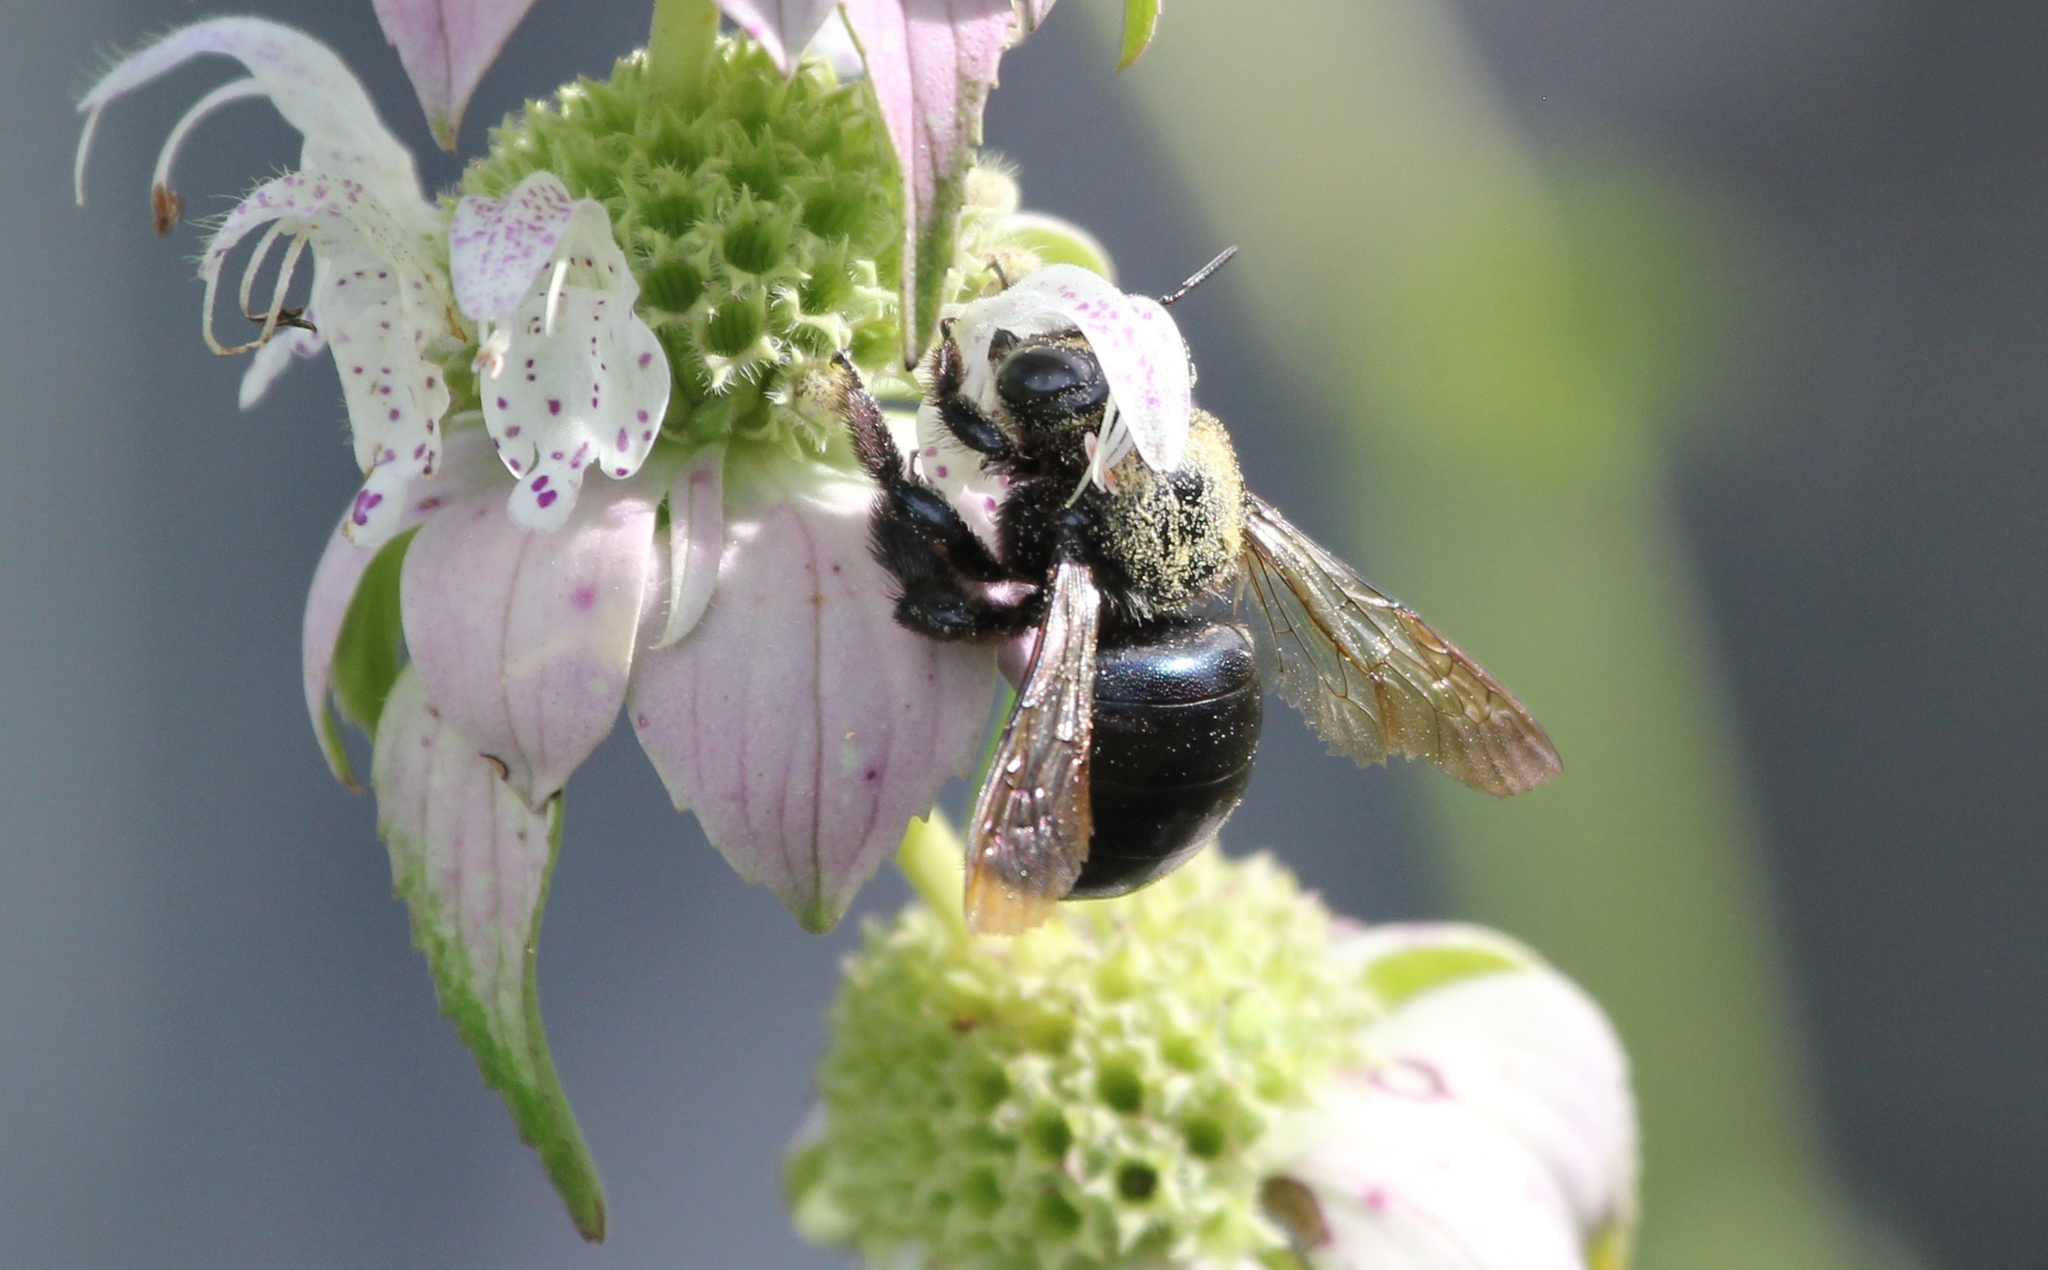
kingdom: Animalia
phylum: Arthropoda
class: Insecta
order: Hymenoptera
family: Apidae
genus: Xylocopa
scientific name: Xylocopa micans
